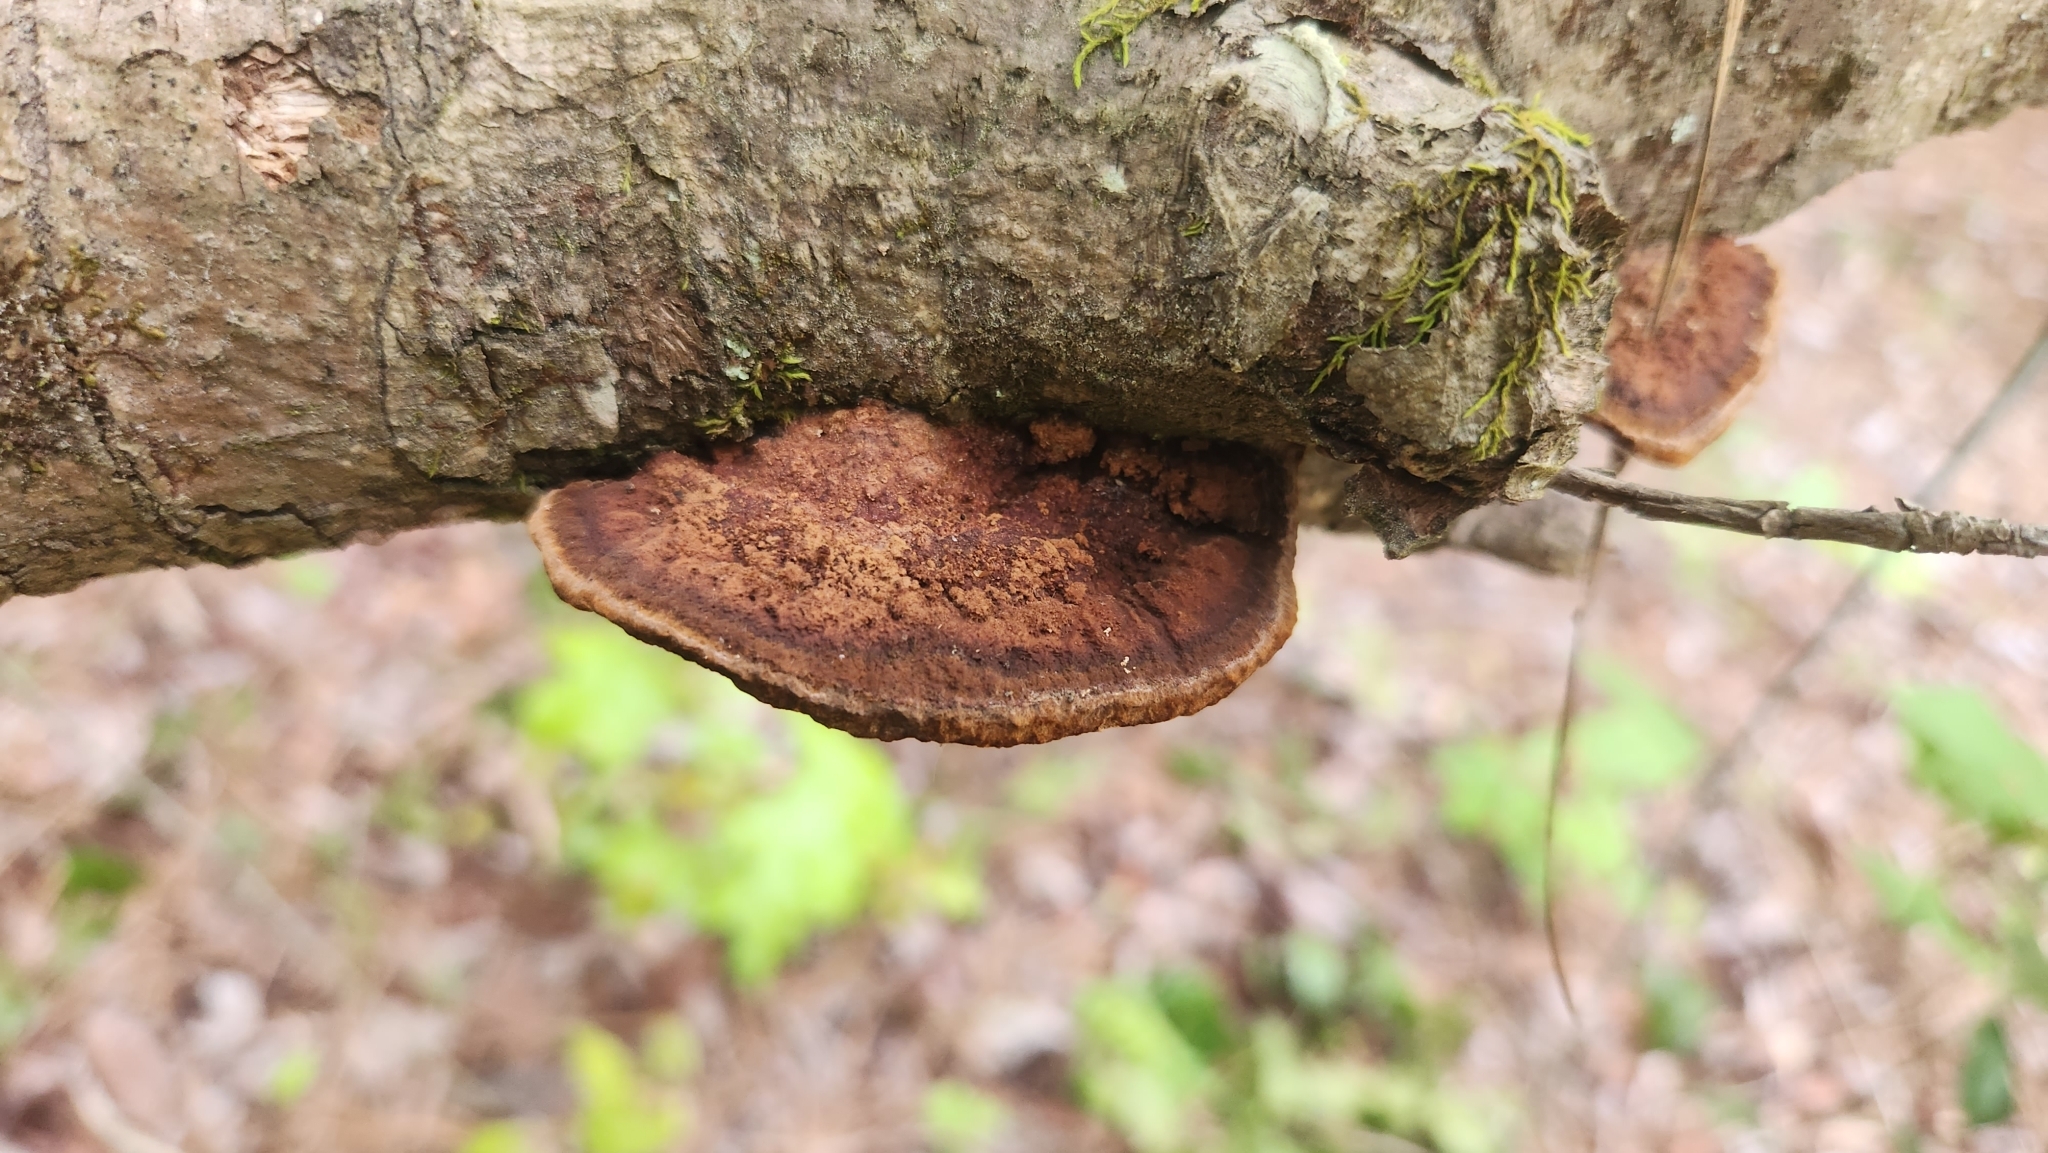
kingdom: Fungi
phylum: Basidiomycota
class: Agaricomycetes
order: Hymenochaetales
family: Hymenochaetaceae
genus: Phellinus
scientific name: Phellinus gilvus
